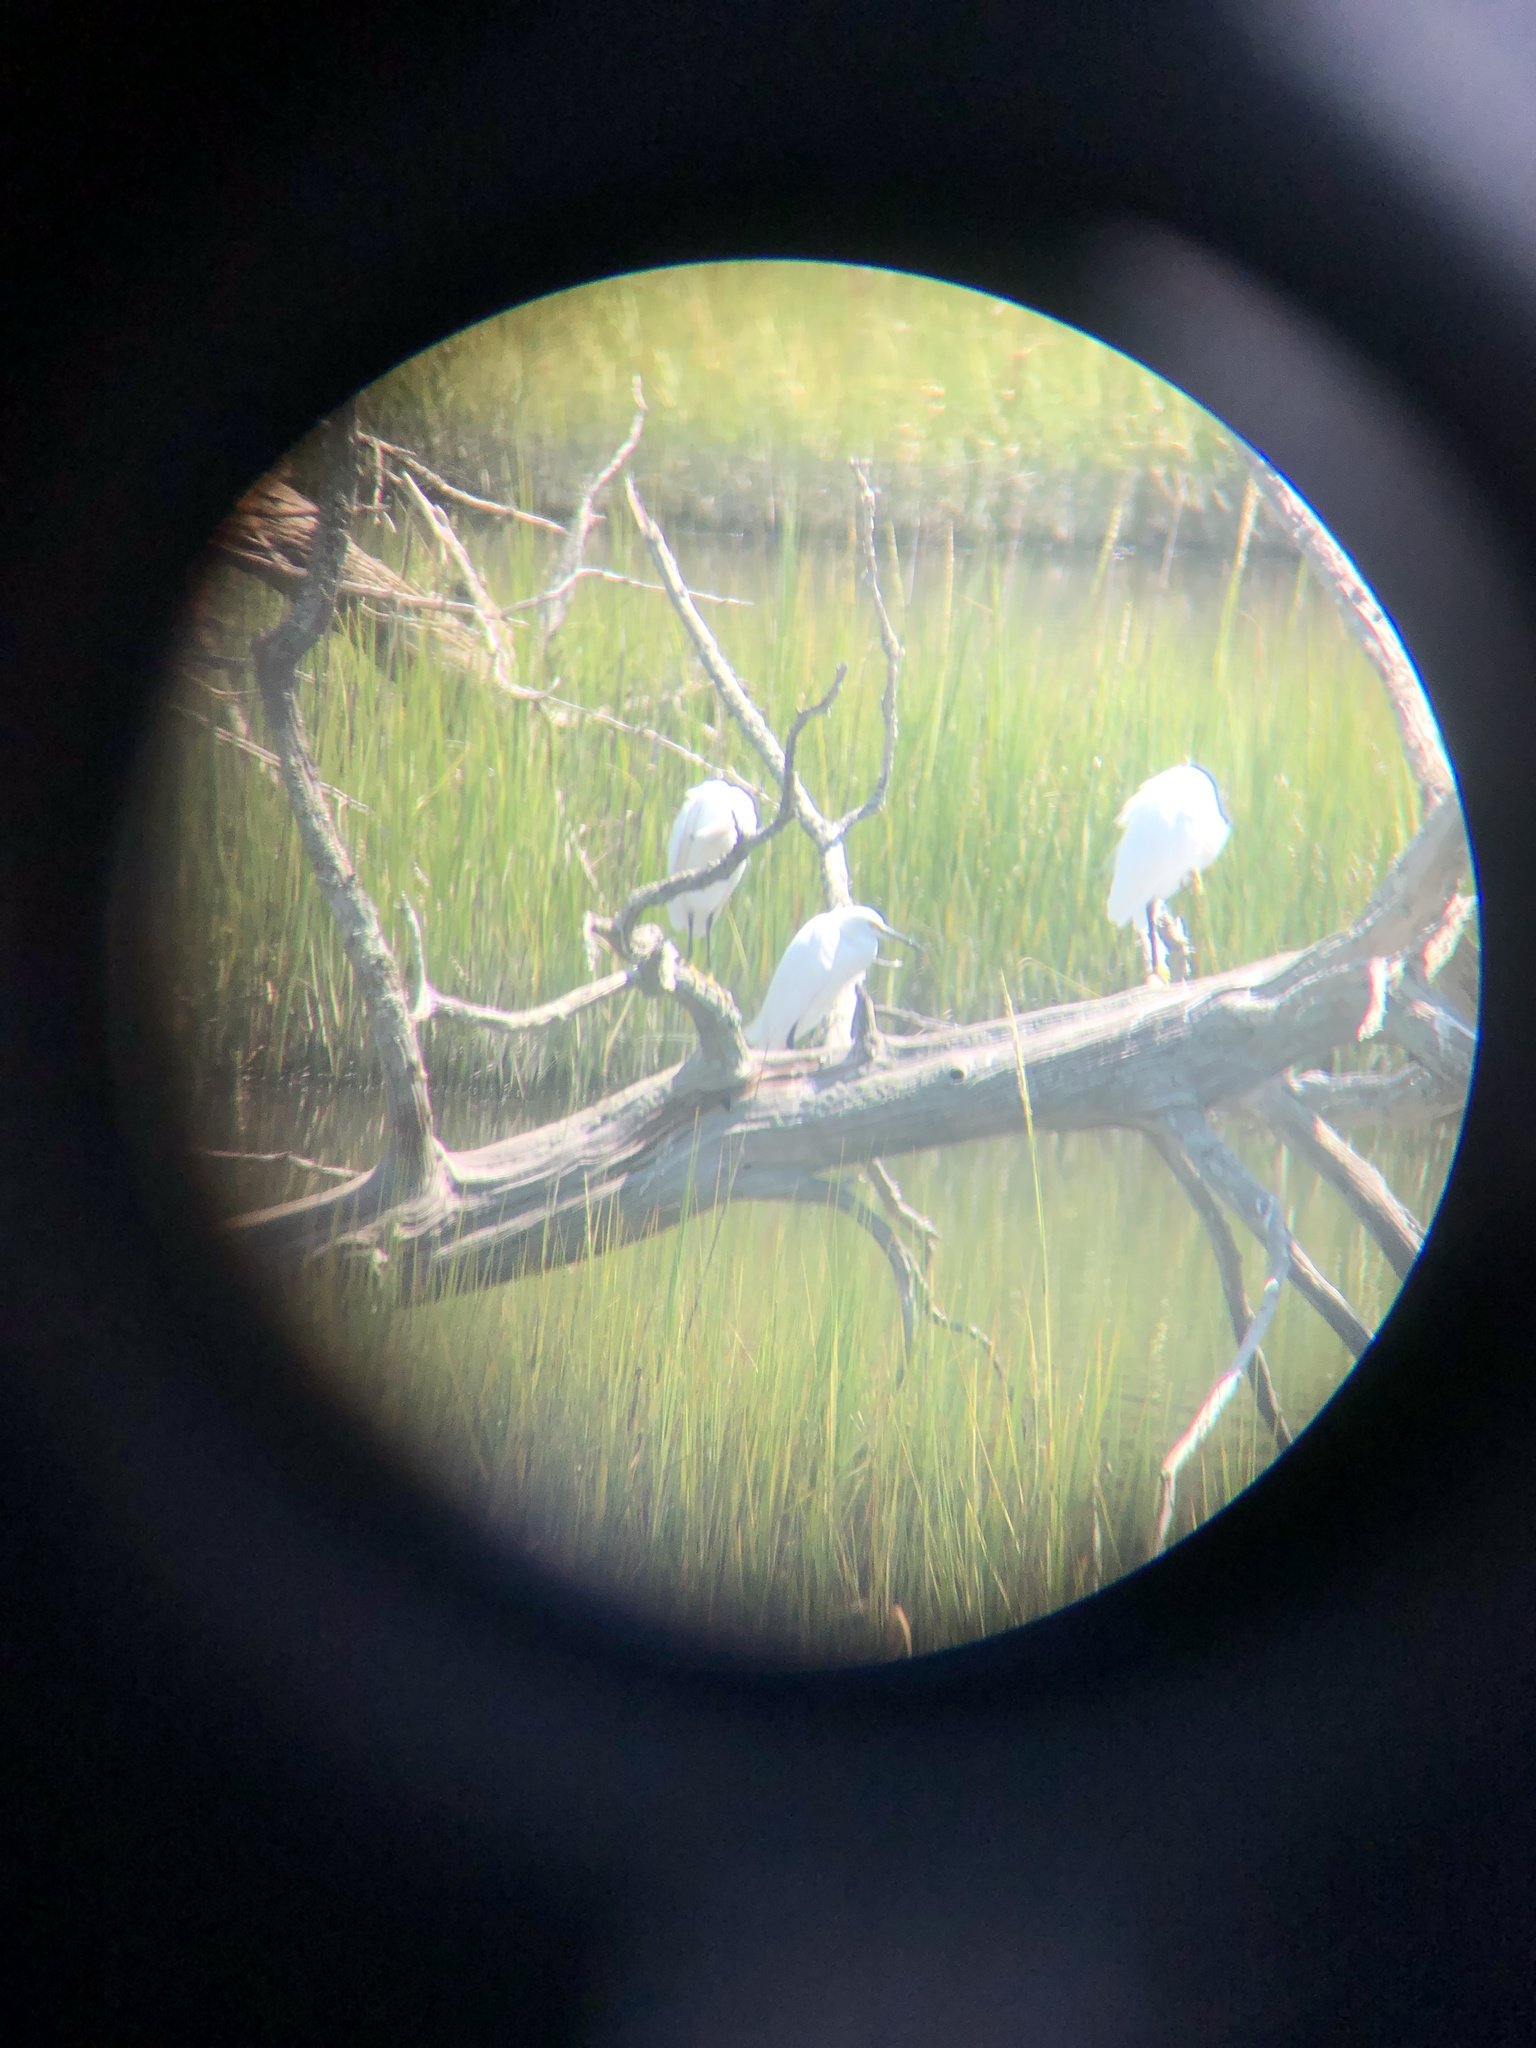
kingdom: Animalia
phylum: Chordata
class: Aves
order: Pelecaniformes
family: Ardeidae
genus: Egretta
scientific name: Egretta thula
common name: Snowy egret
